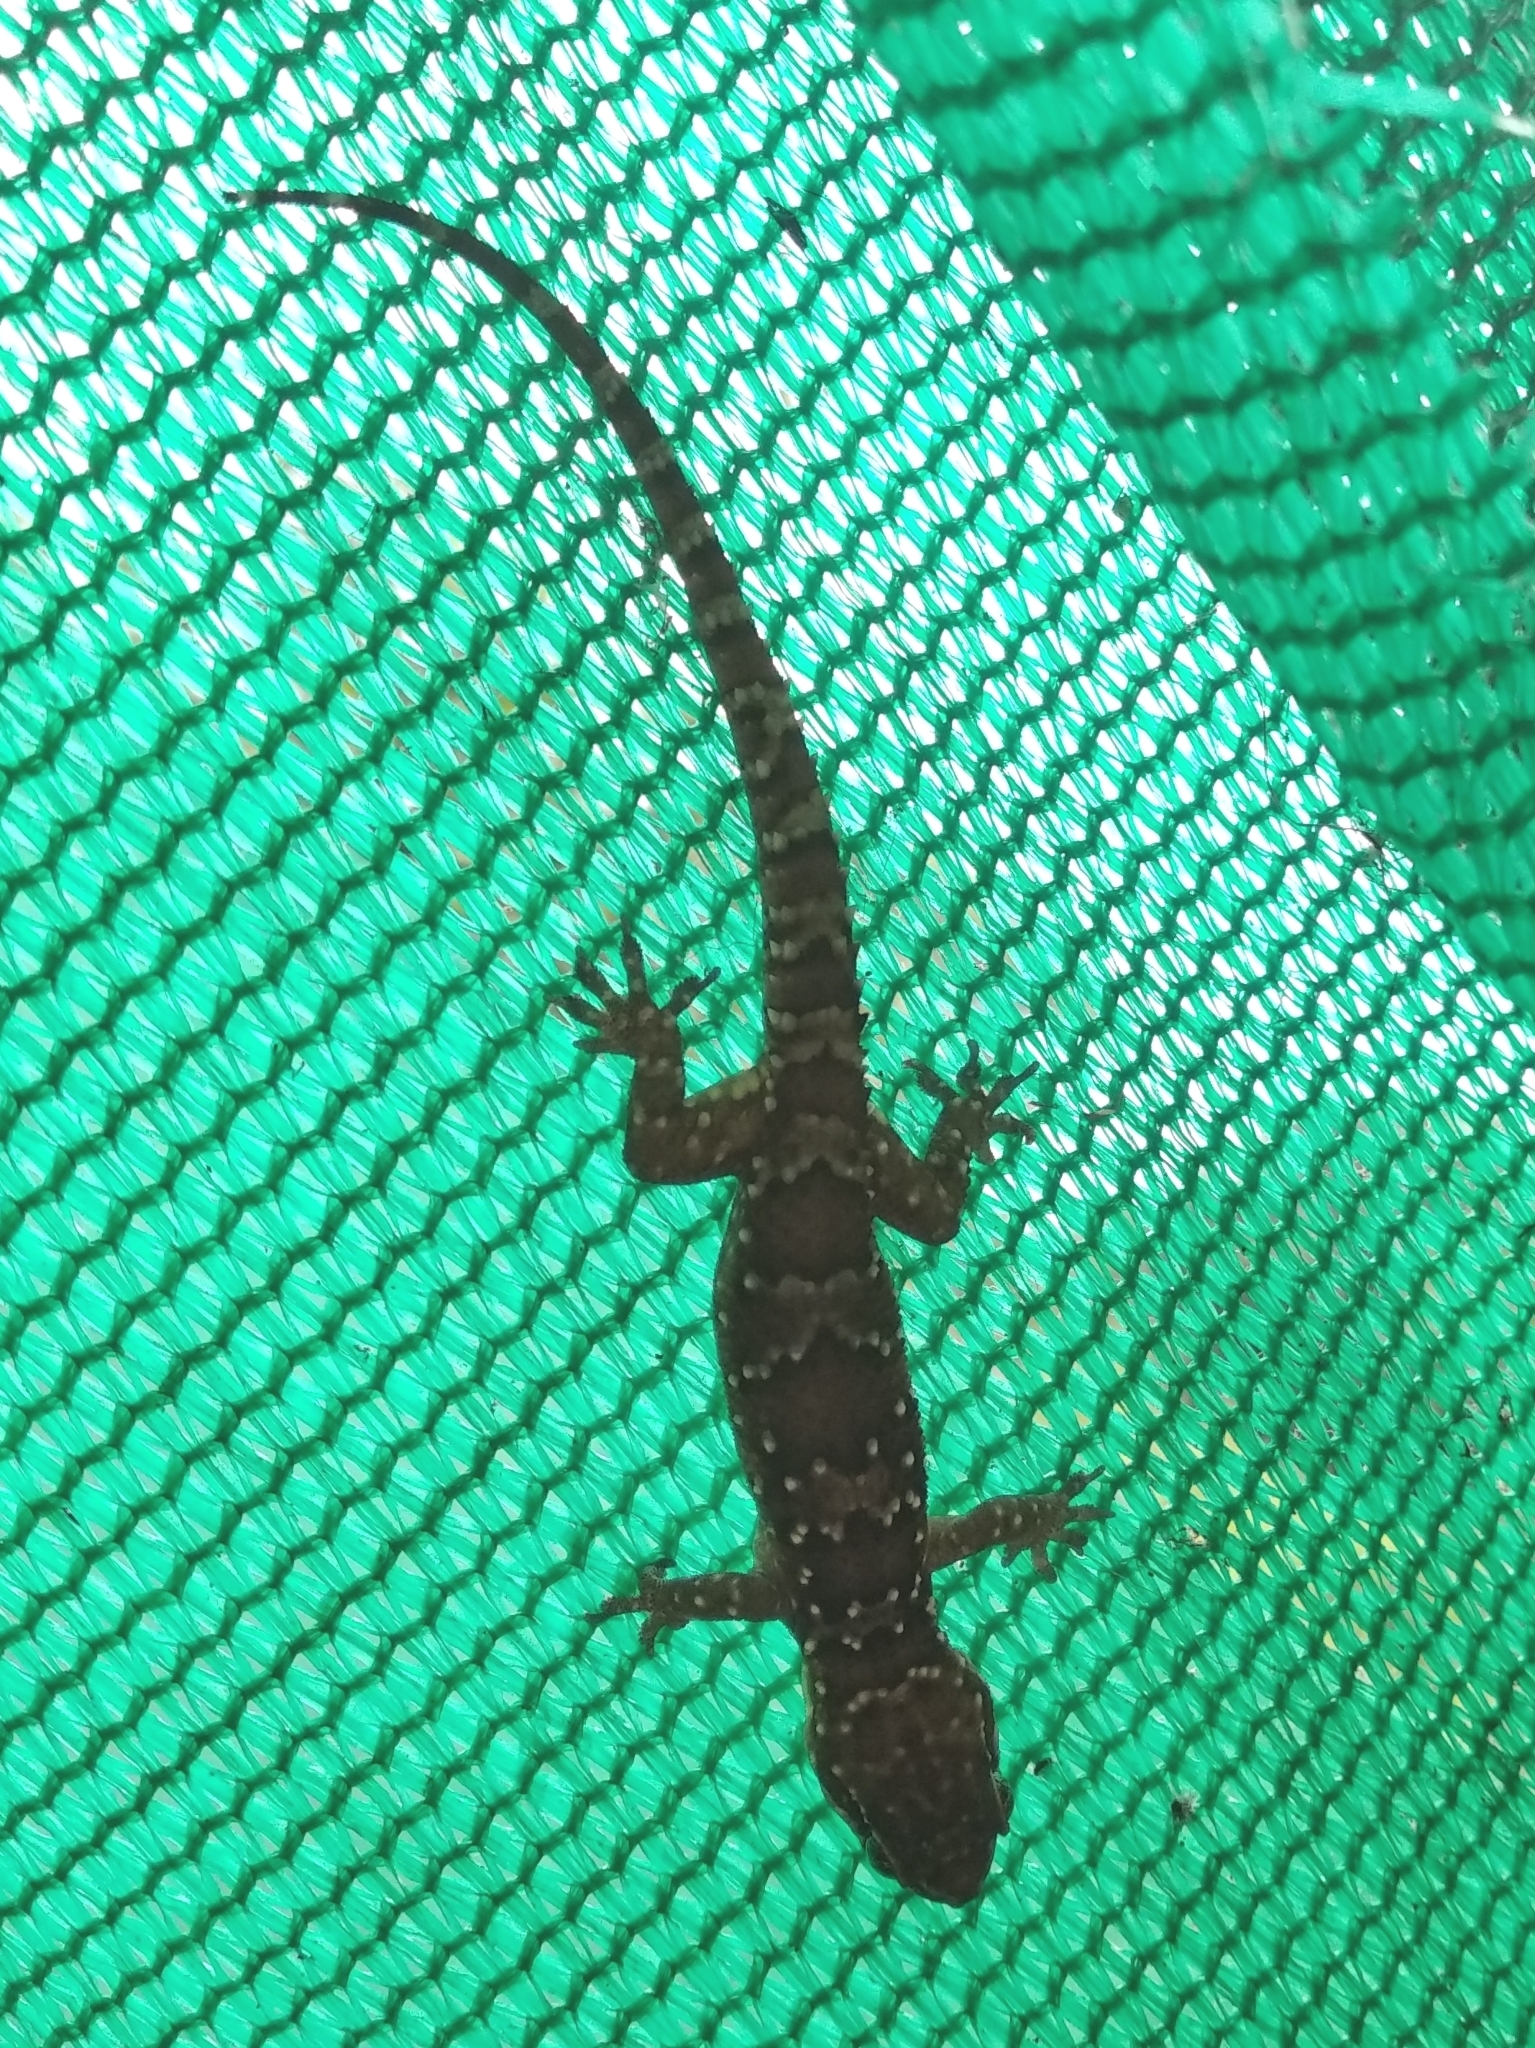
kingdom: Animalia
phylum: Chordata
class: Squamata
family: Gekkonidae
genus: Hemidactylus
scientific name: Hemidactylus triedrus
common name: Blotched house gecko
